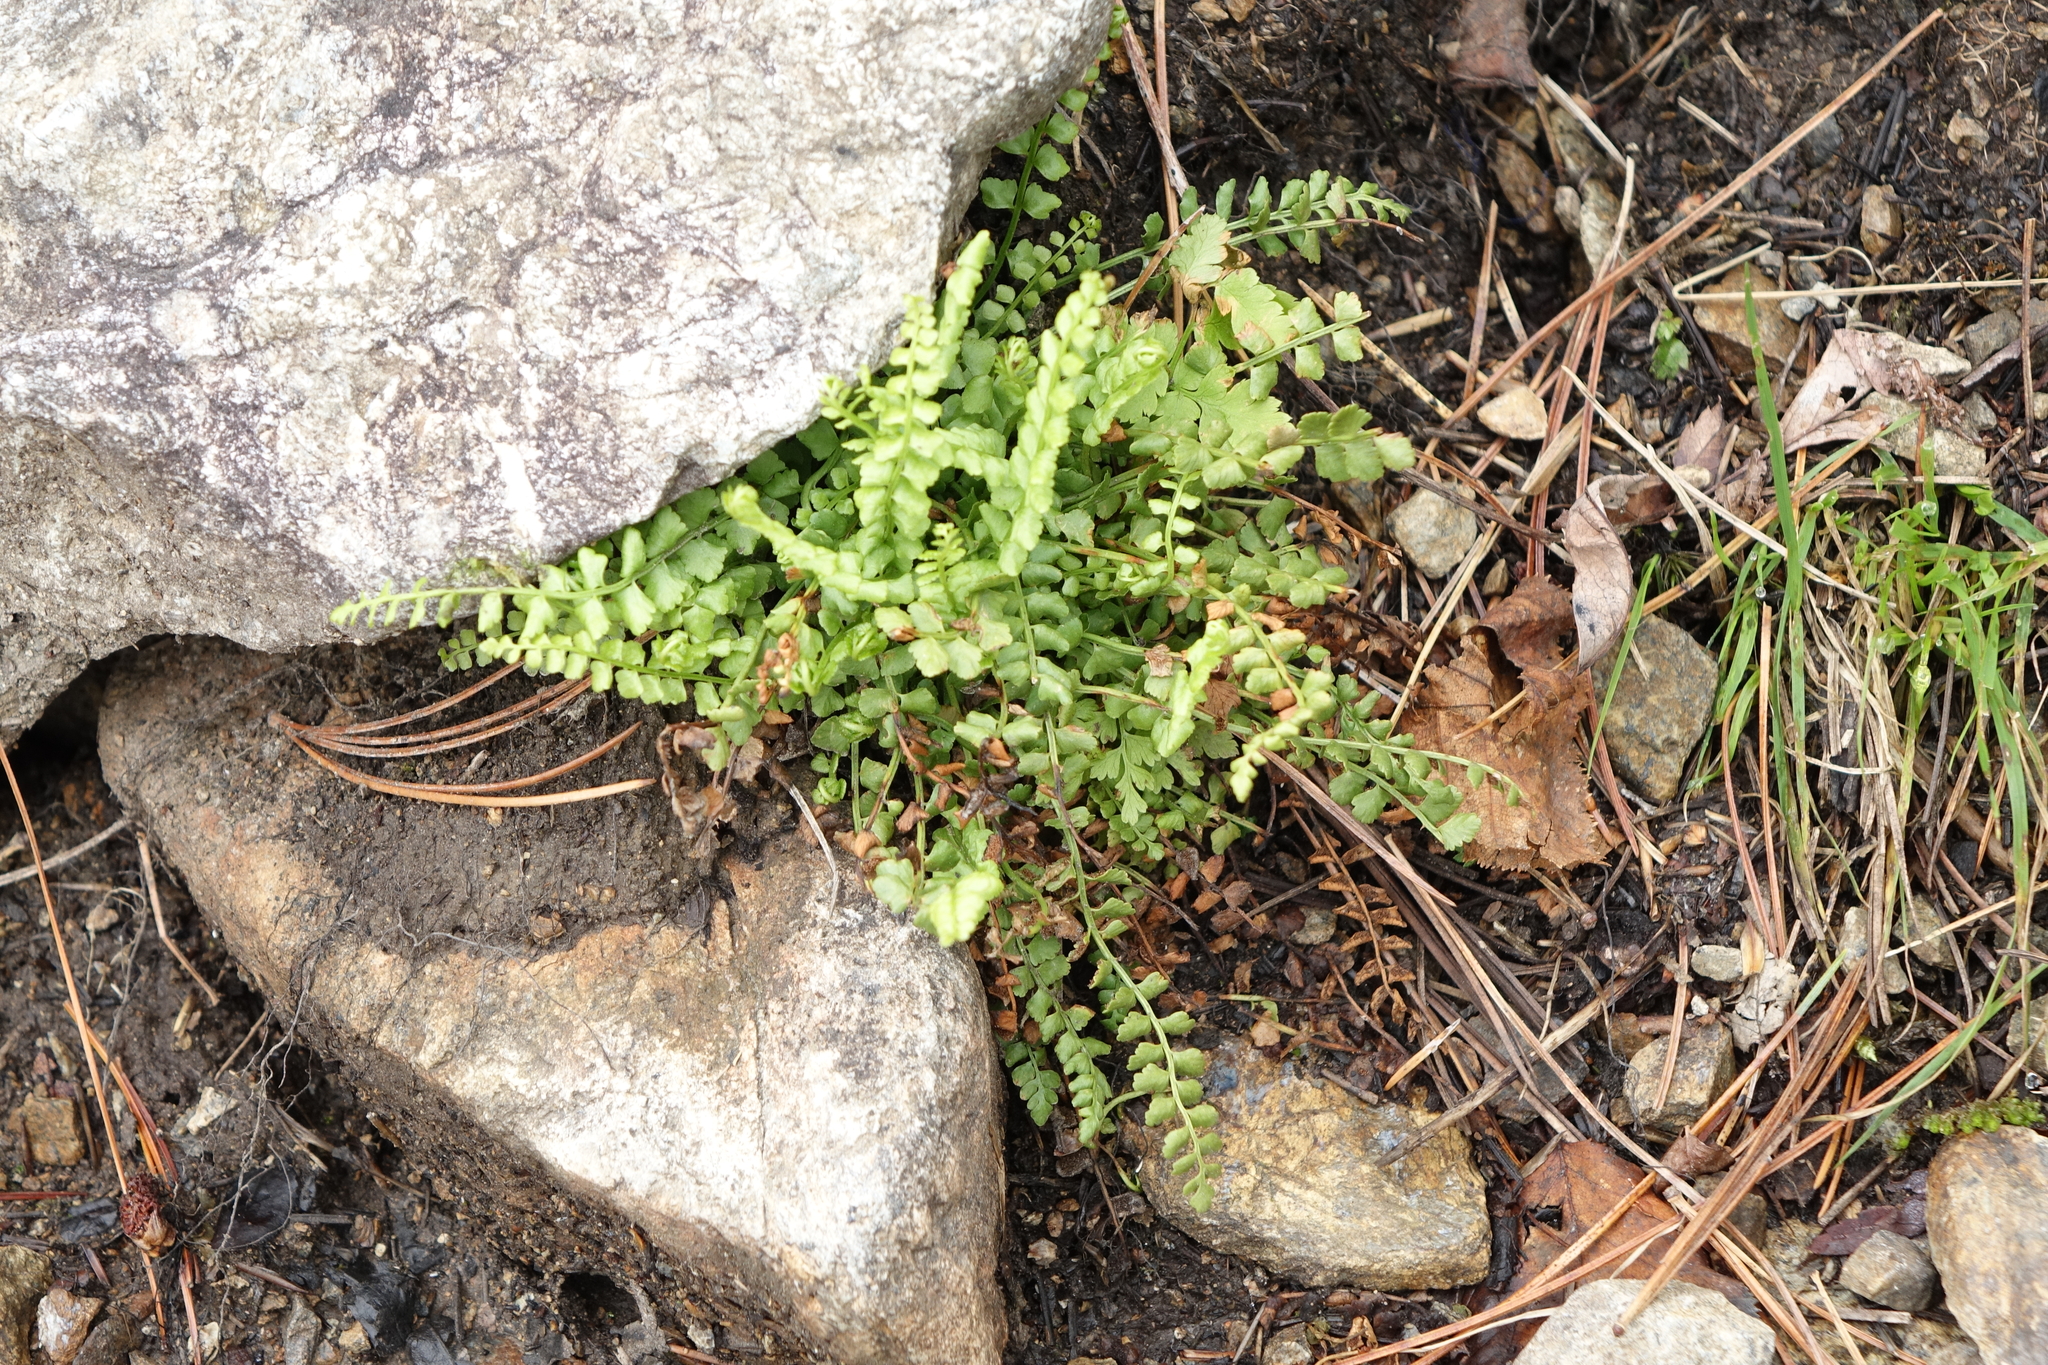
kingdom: Plantae
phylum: Tracheophyta
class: Polypodiopsida
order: Polypodiales
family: Aspleniaceae
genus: Asplenium
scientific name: Asplenium viride
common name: Green spleenwort
